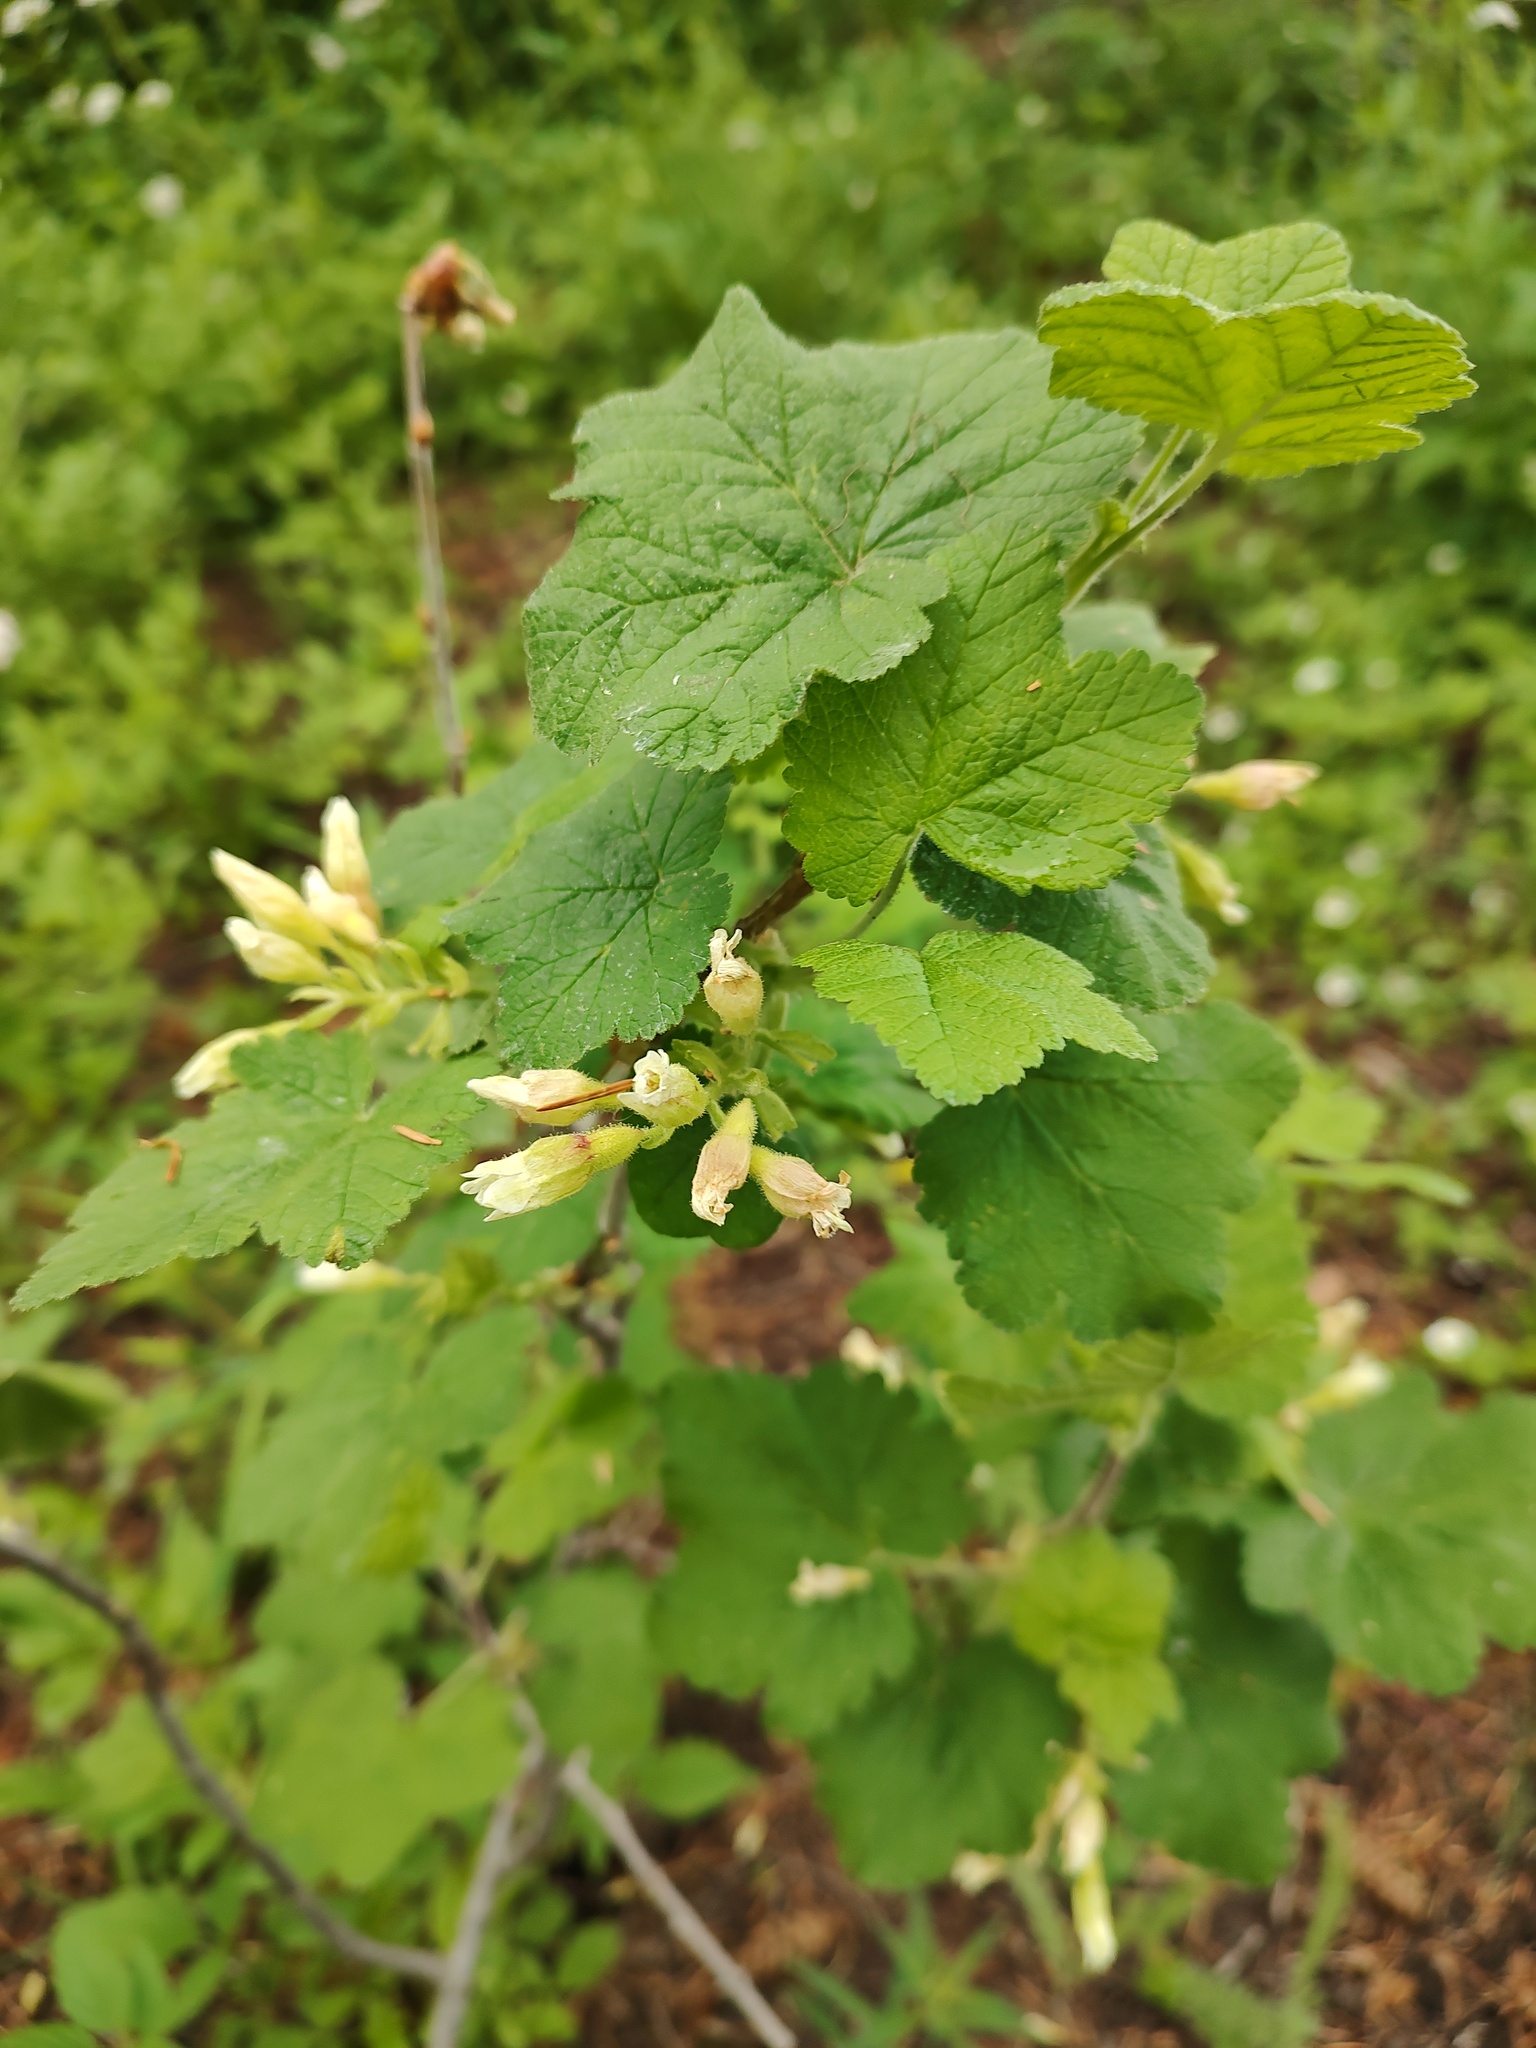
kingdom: Plantae
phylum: Tracheophyta
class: Magnoliopsida
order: Saxifragales
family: Grossulariaceae
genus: Ribes
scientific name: Ribes viscosissimum
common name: Sticky currant
